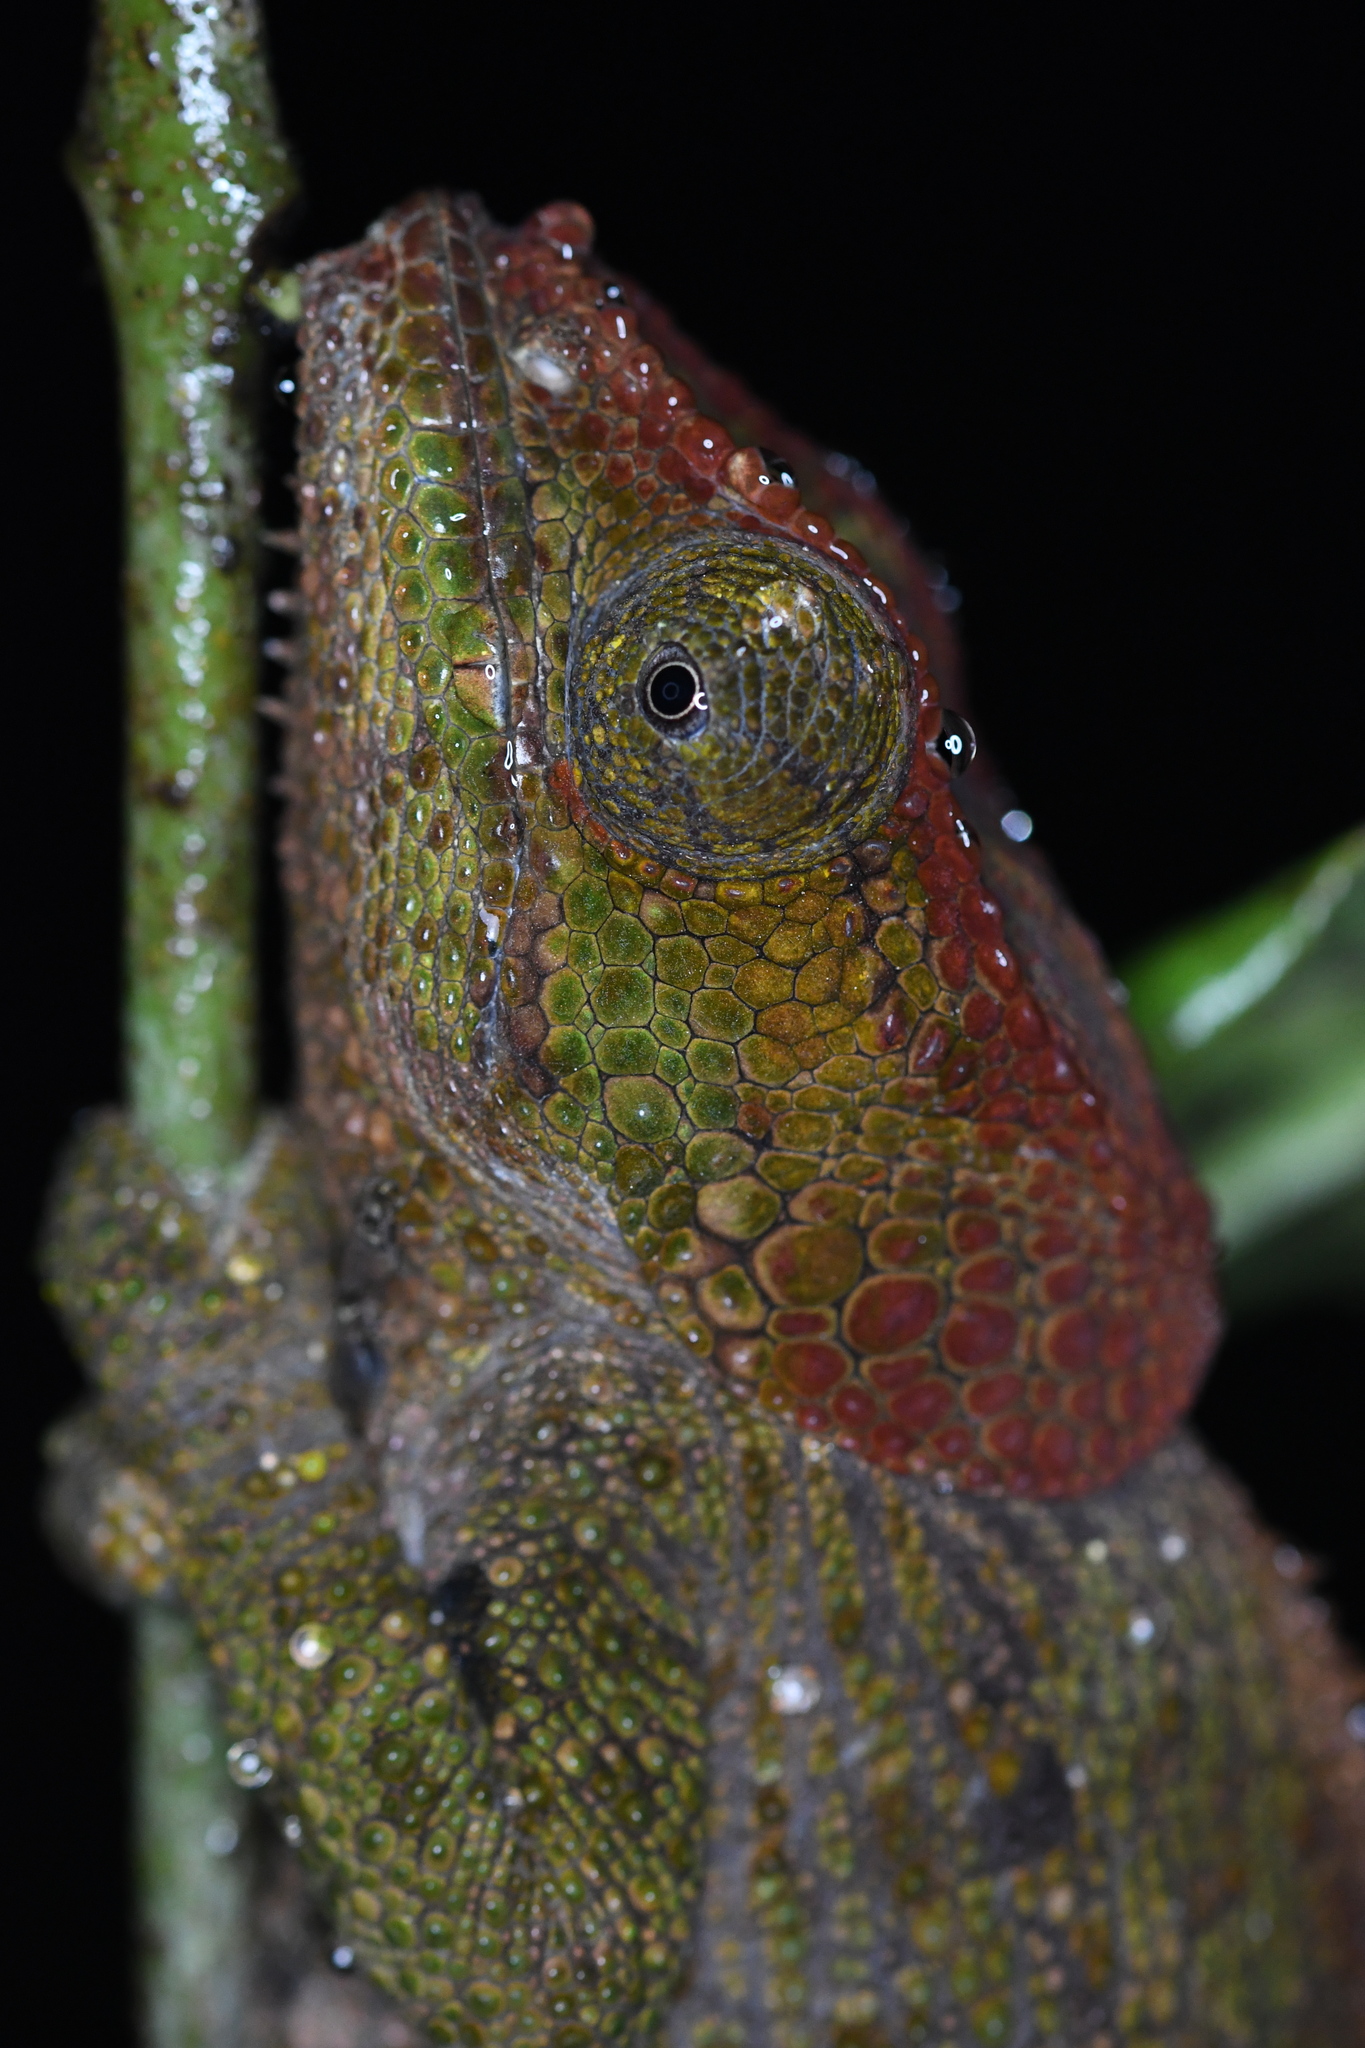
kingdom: Animalia
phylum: Chordata
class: Squamata
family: Chamaeleonidae
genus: Calumma
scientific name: Calumma crypticum
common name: Cryptic chameleon
